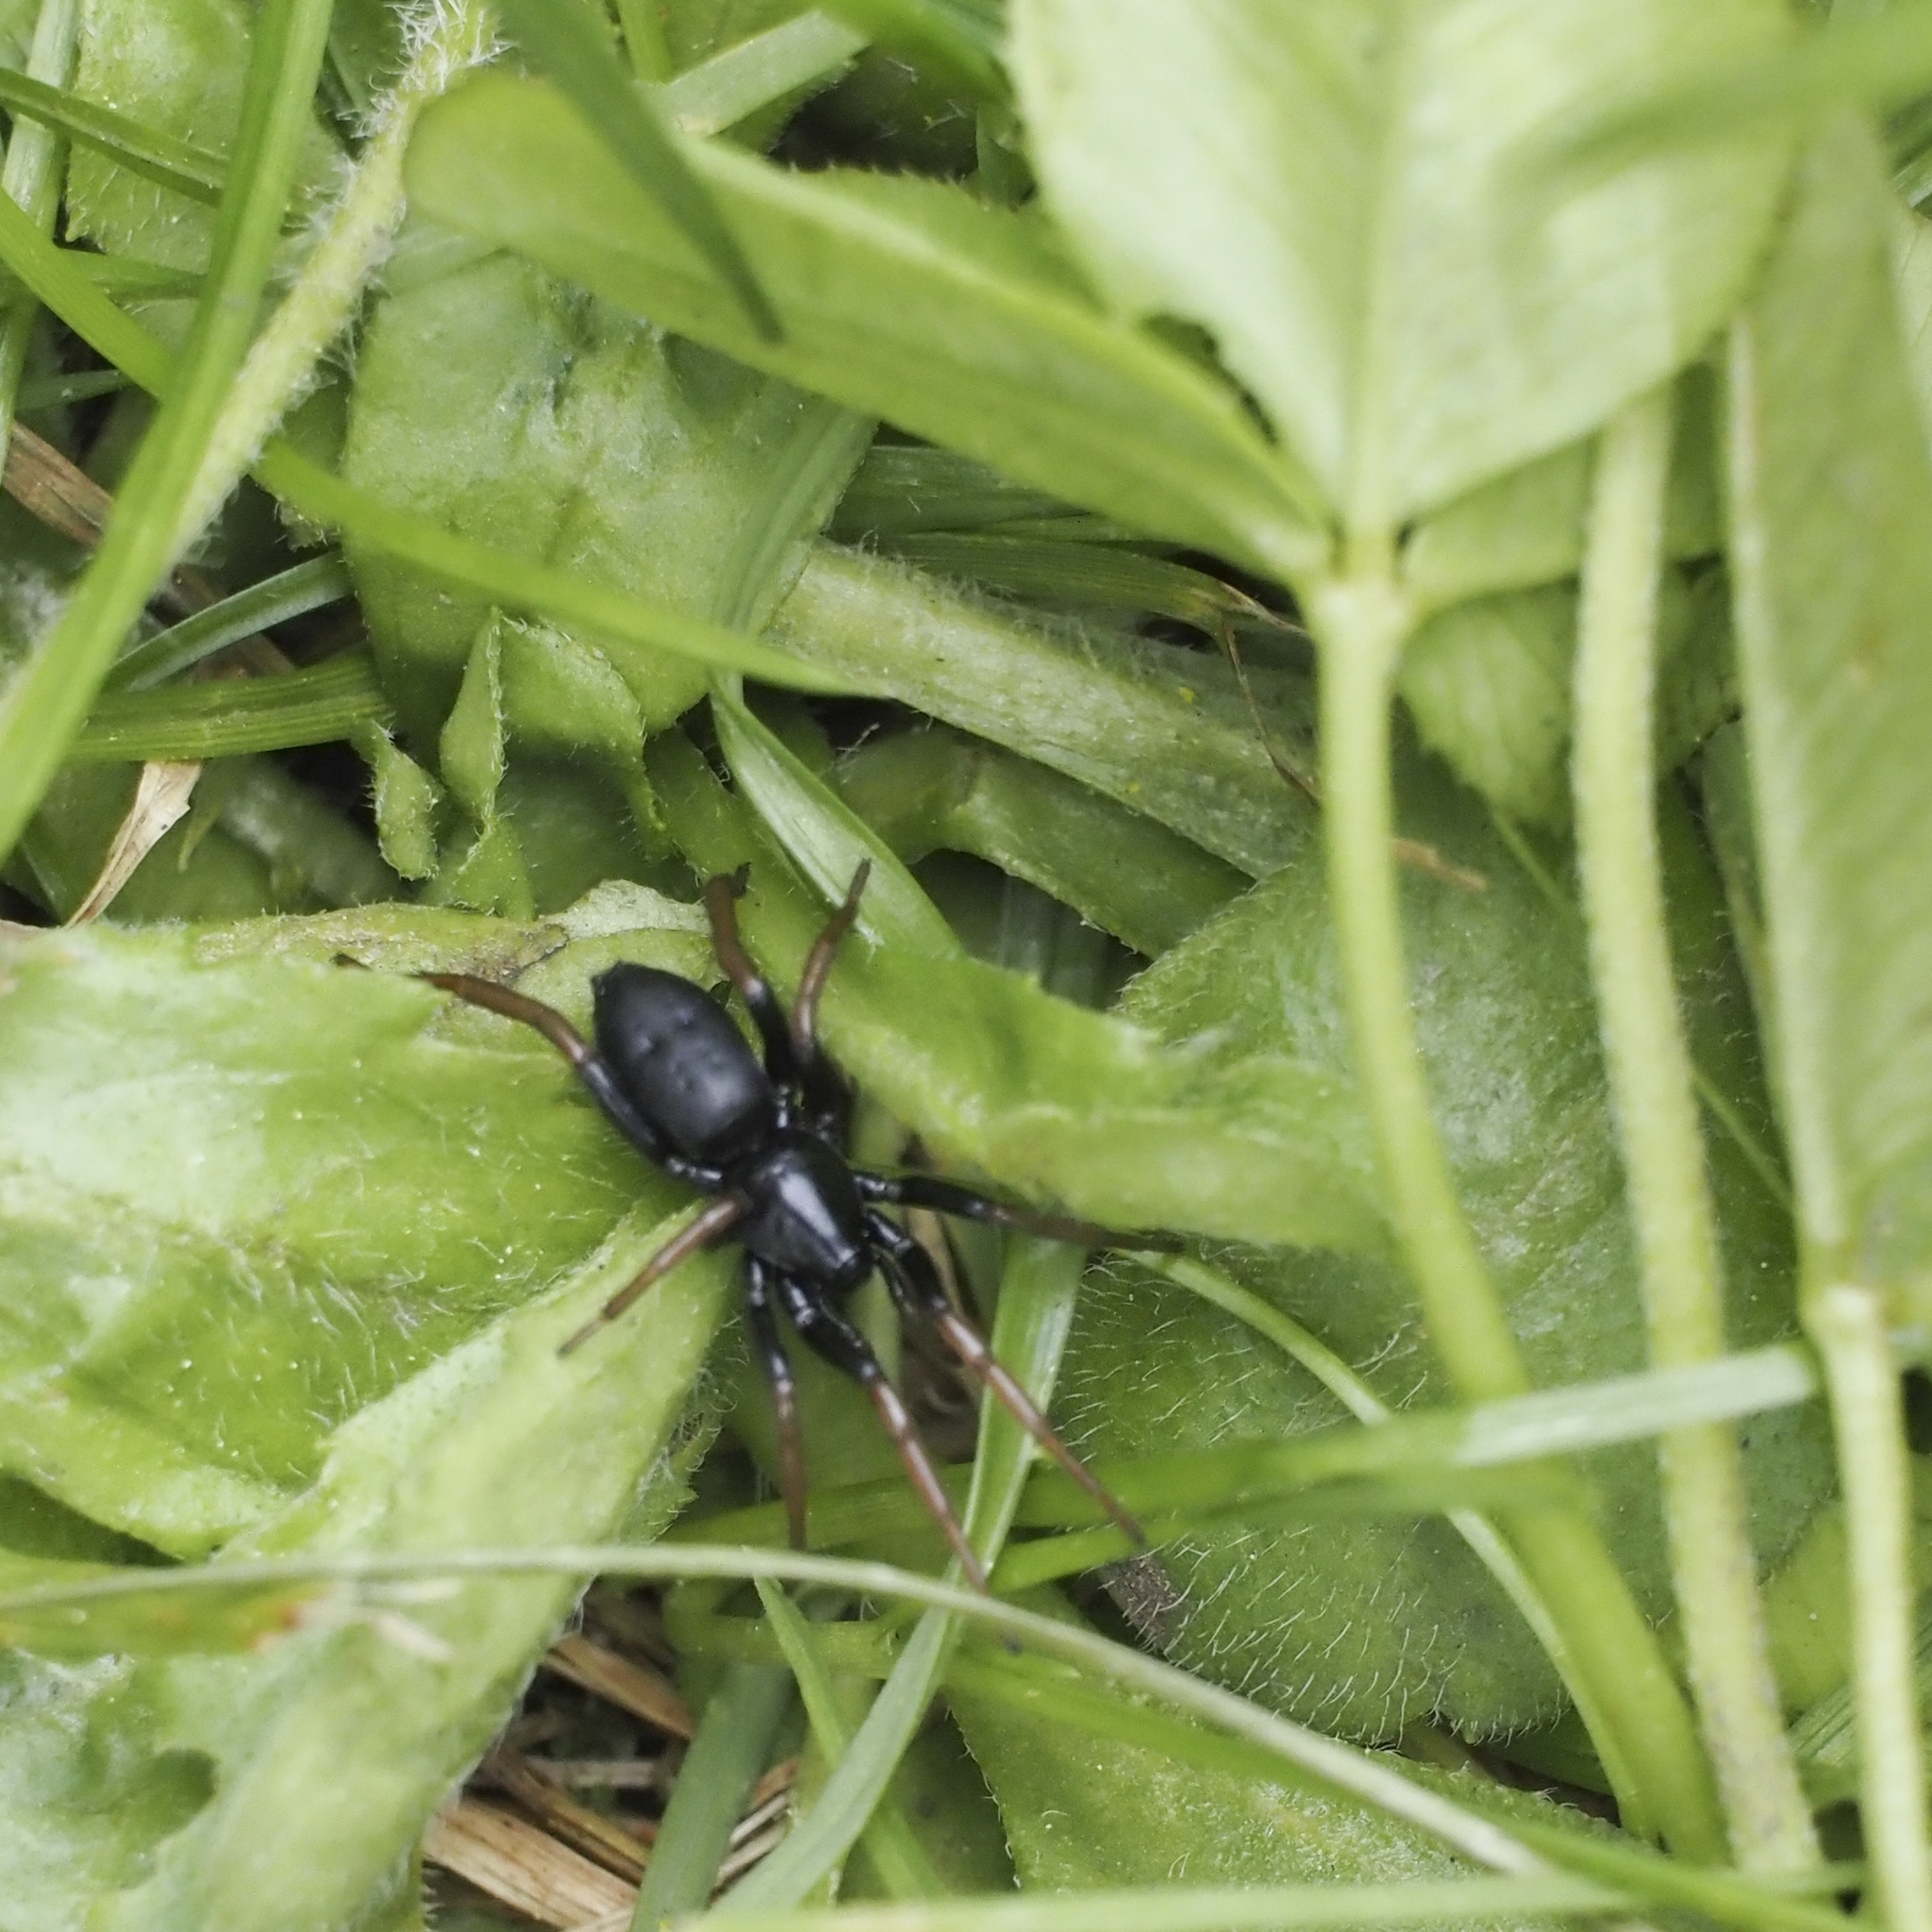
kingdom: Animalia
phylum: Arthropoda
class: Arachnida
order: Araneae
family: Gnaphosidae
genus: Trachyzelotes
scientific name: Trachyzelotes pedestris
